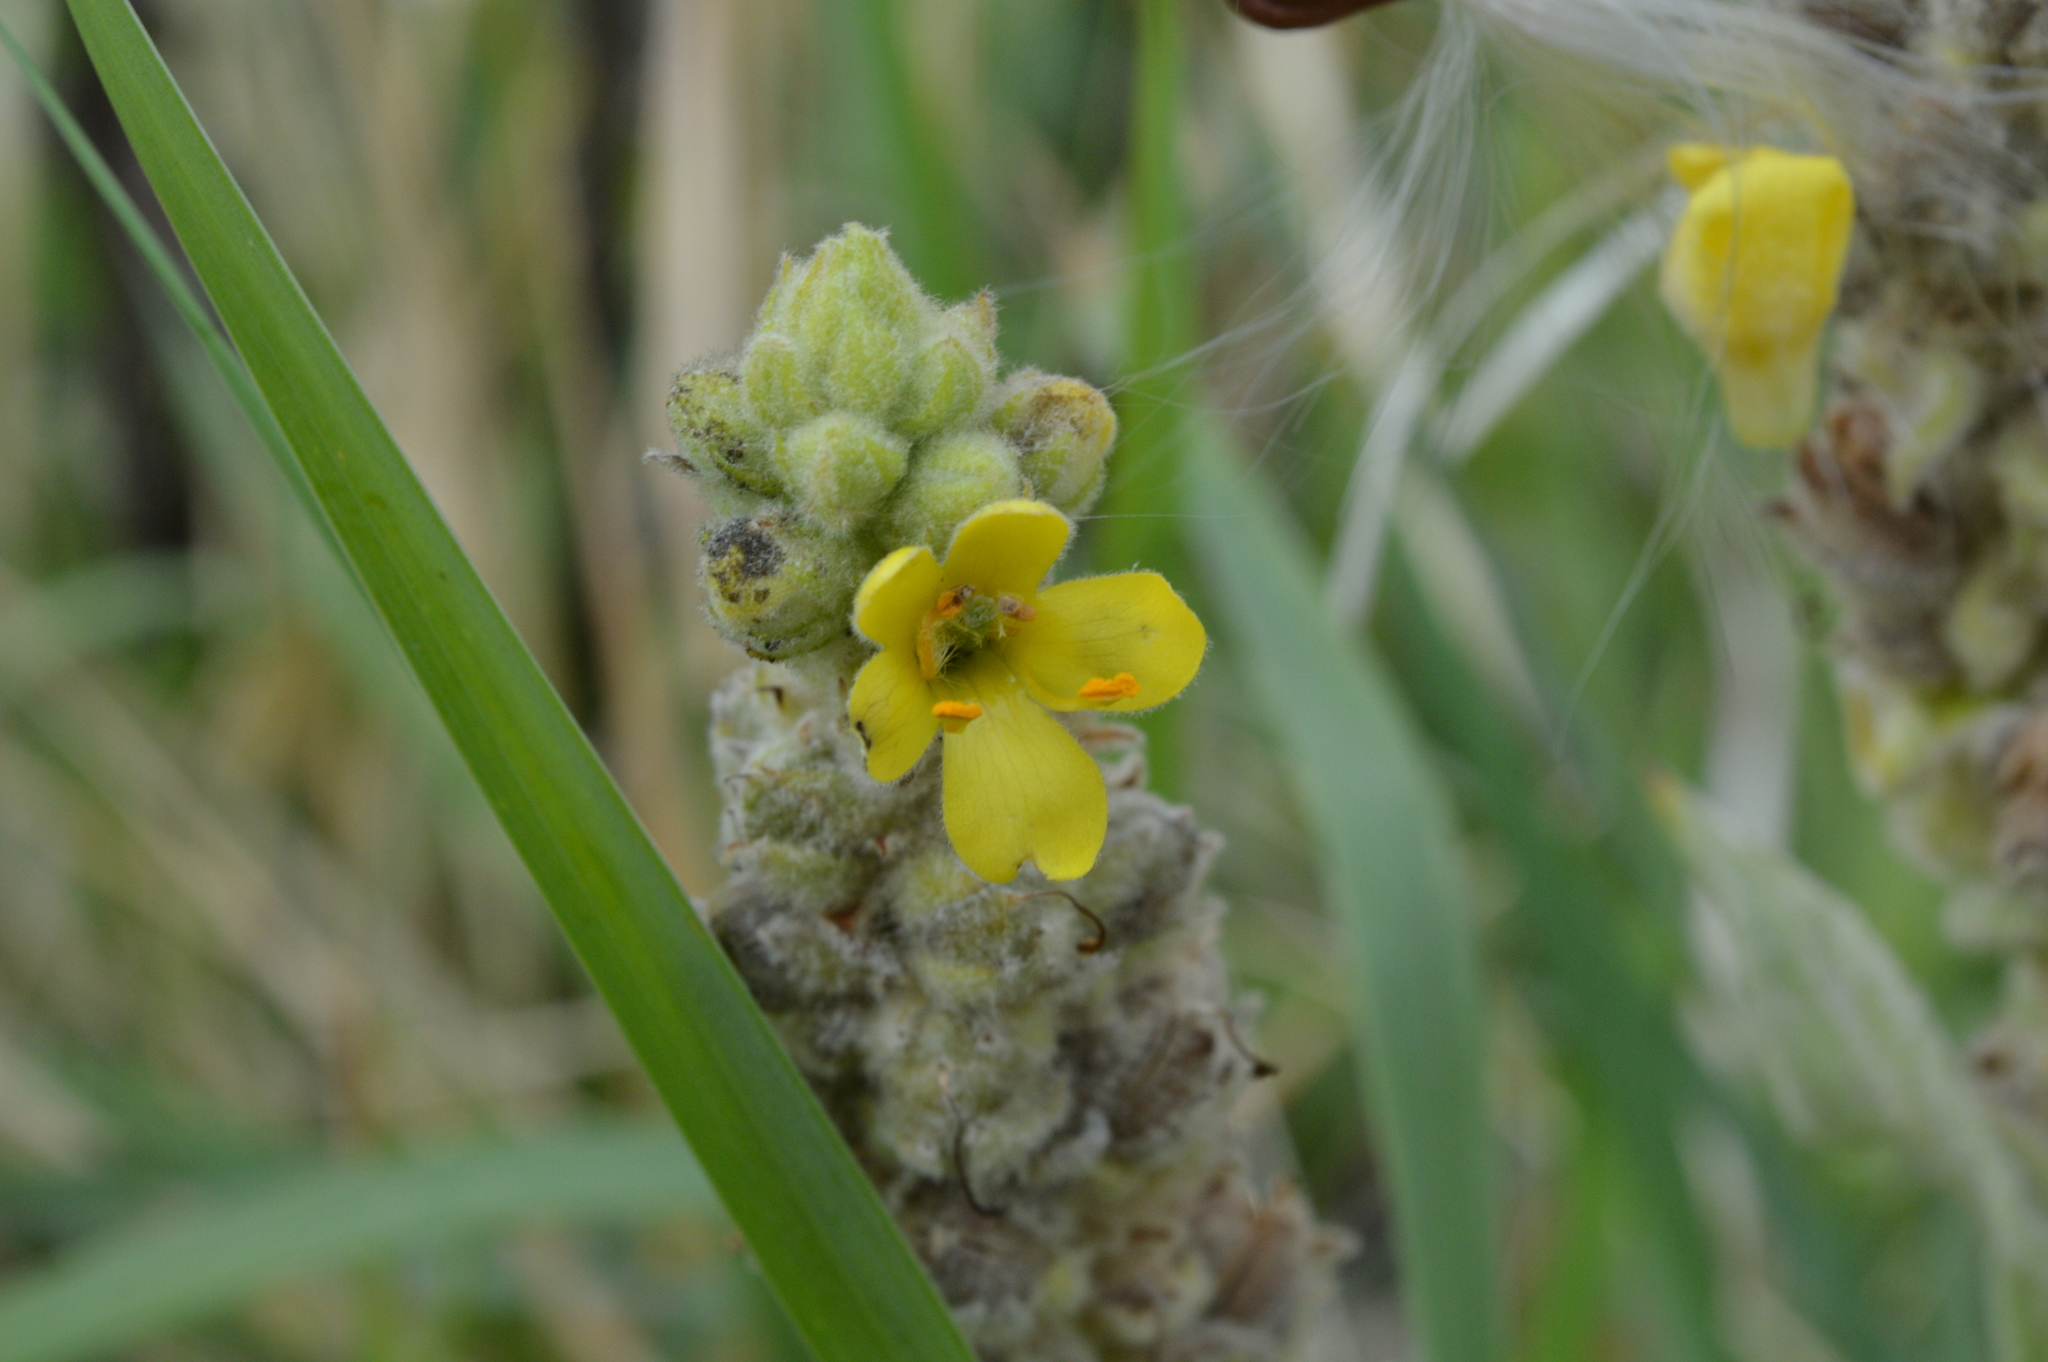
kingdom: Plantae
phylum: Tracheophyta
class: Magnoliopsida
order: Lamiales
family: Scrophulariaceae
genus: Verbascum
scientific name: Verbascum thapsus
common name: Common mullein
